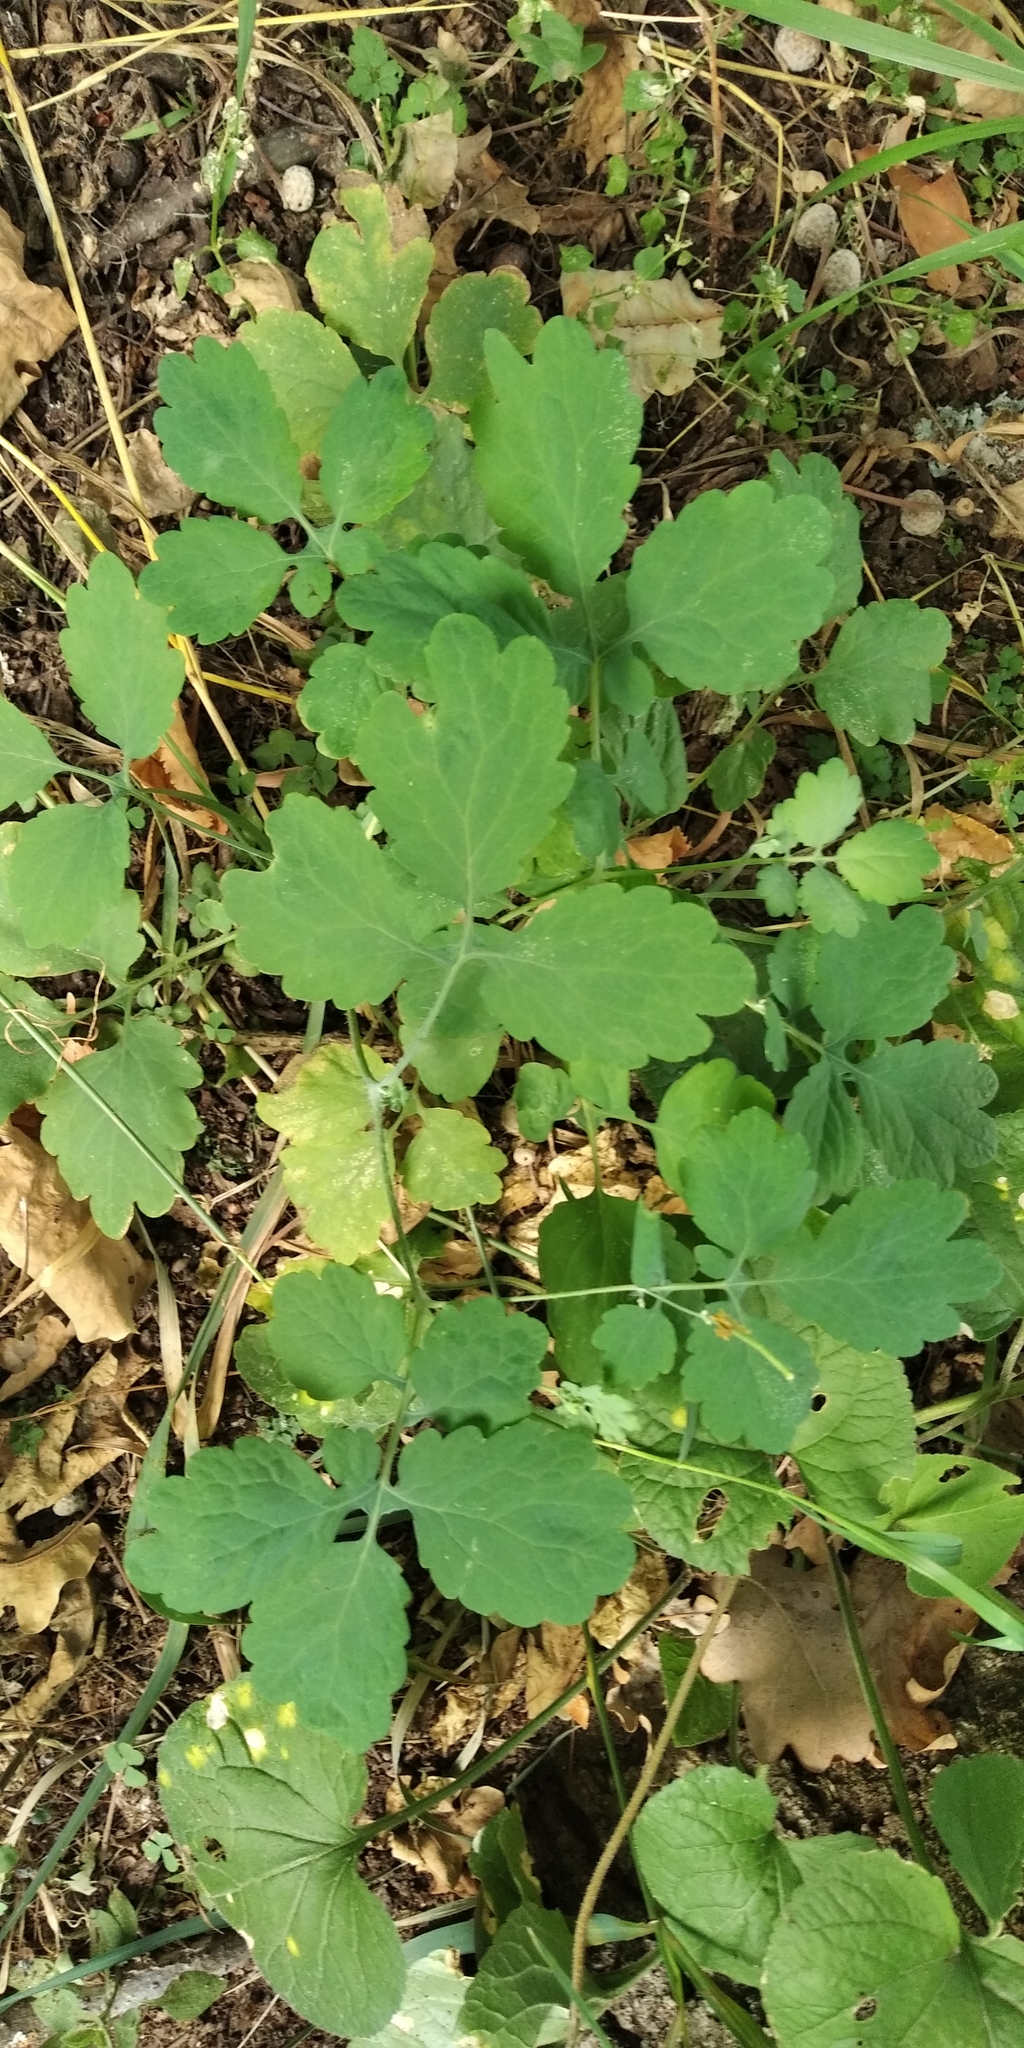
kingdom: Plantae
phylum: Tracheophyta
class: Magnoliopsida
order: Ranunculales
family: Papaveraceae
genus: Chelidonium
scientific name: Chelidonium majus
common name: Greater celandine
